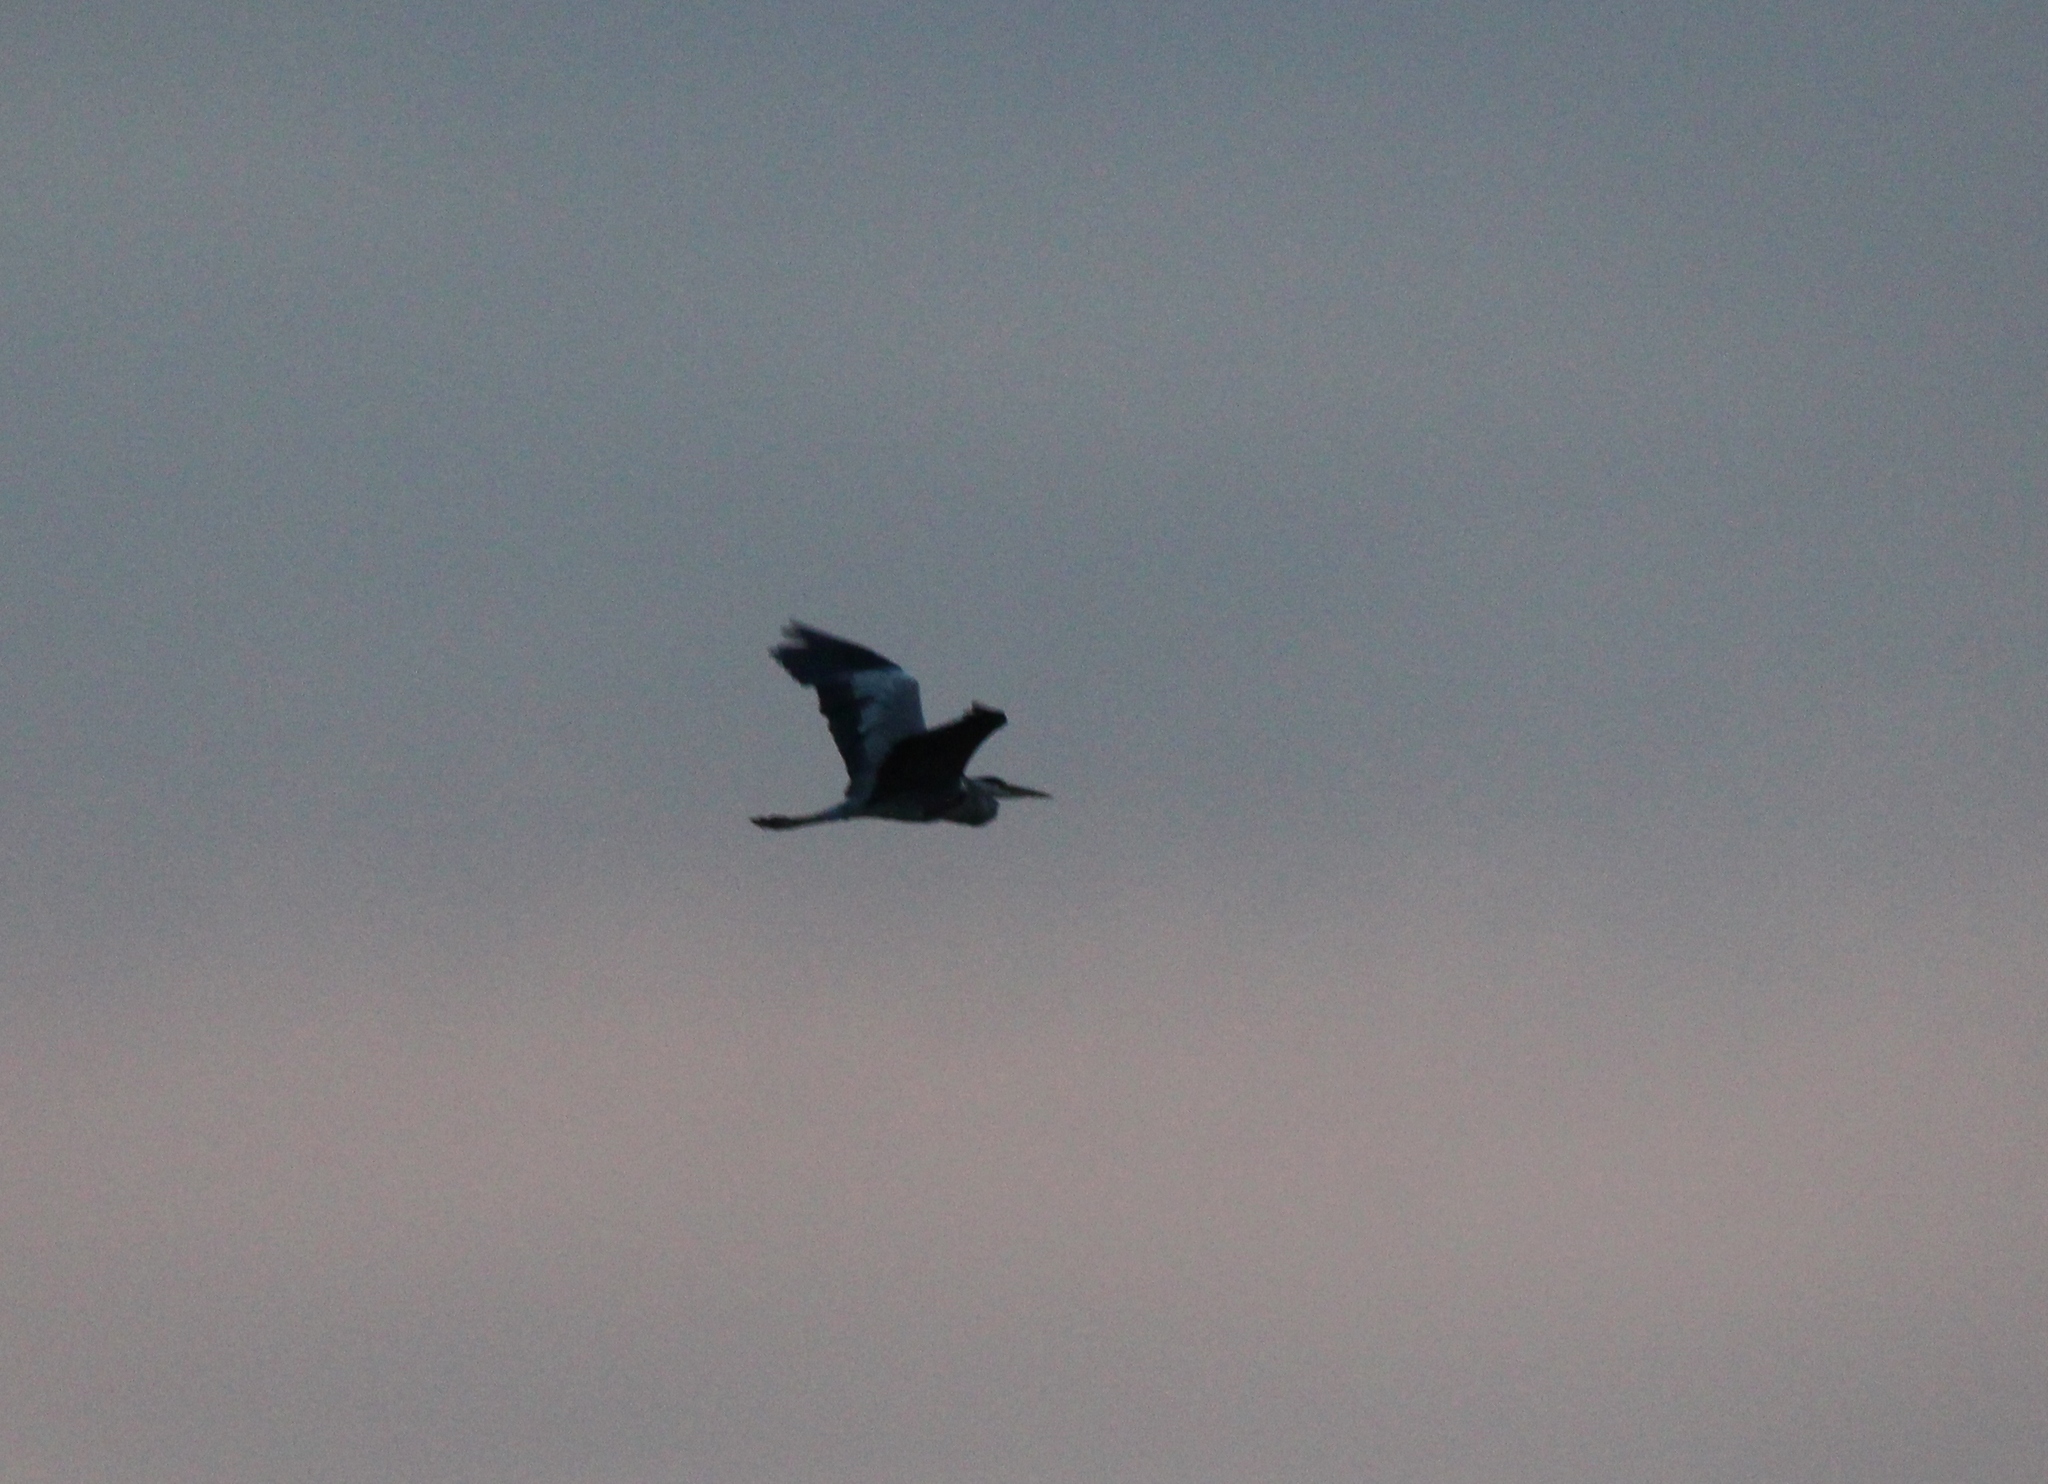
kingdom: Animalia
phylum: Chordata
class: Aves
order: Pelecaniformes
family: Ardeidae
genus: Ardea
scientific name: Ardea cinerea
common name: Grey heron
